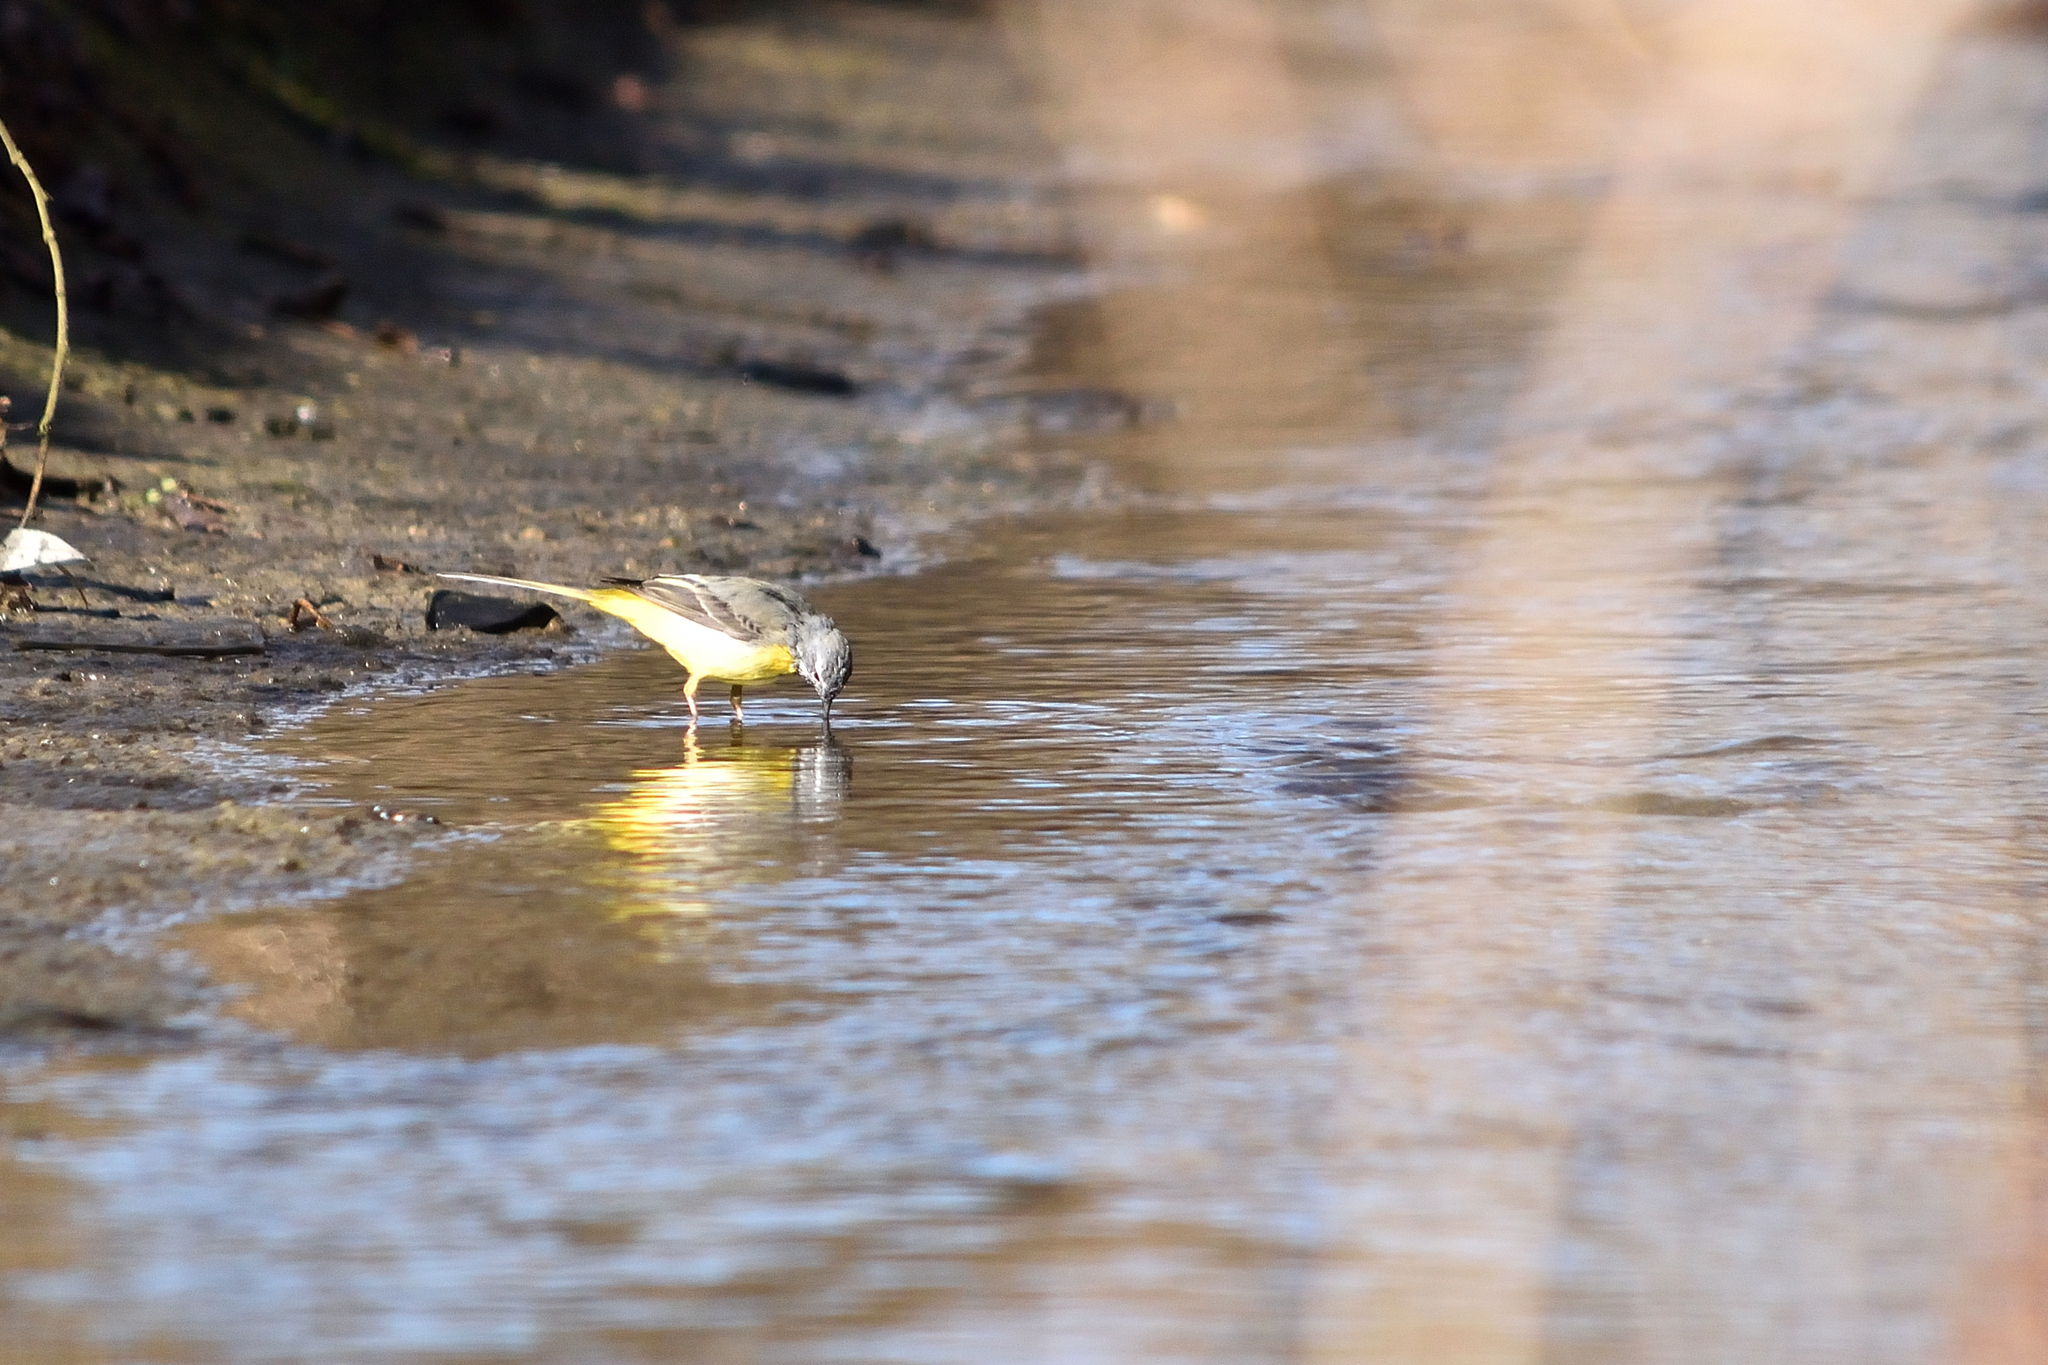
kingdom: Animalia
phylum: Chordata
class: Aves
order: Passeriformes
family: Motacillidae
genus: Motacilla
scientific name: Motacilla cinerea
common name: Grey wagtail
